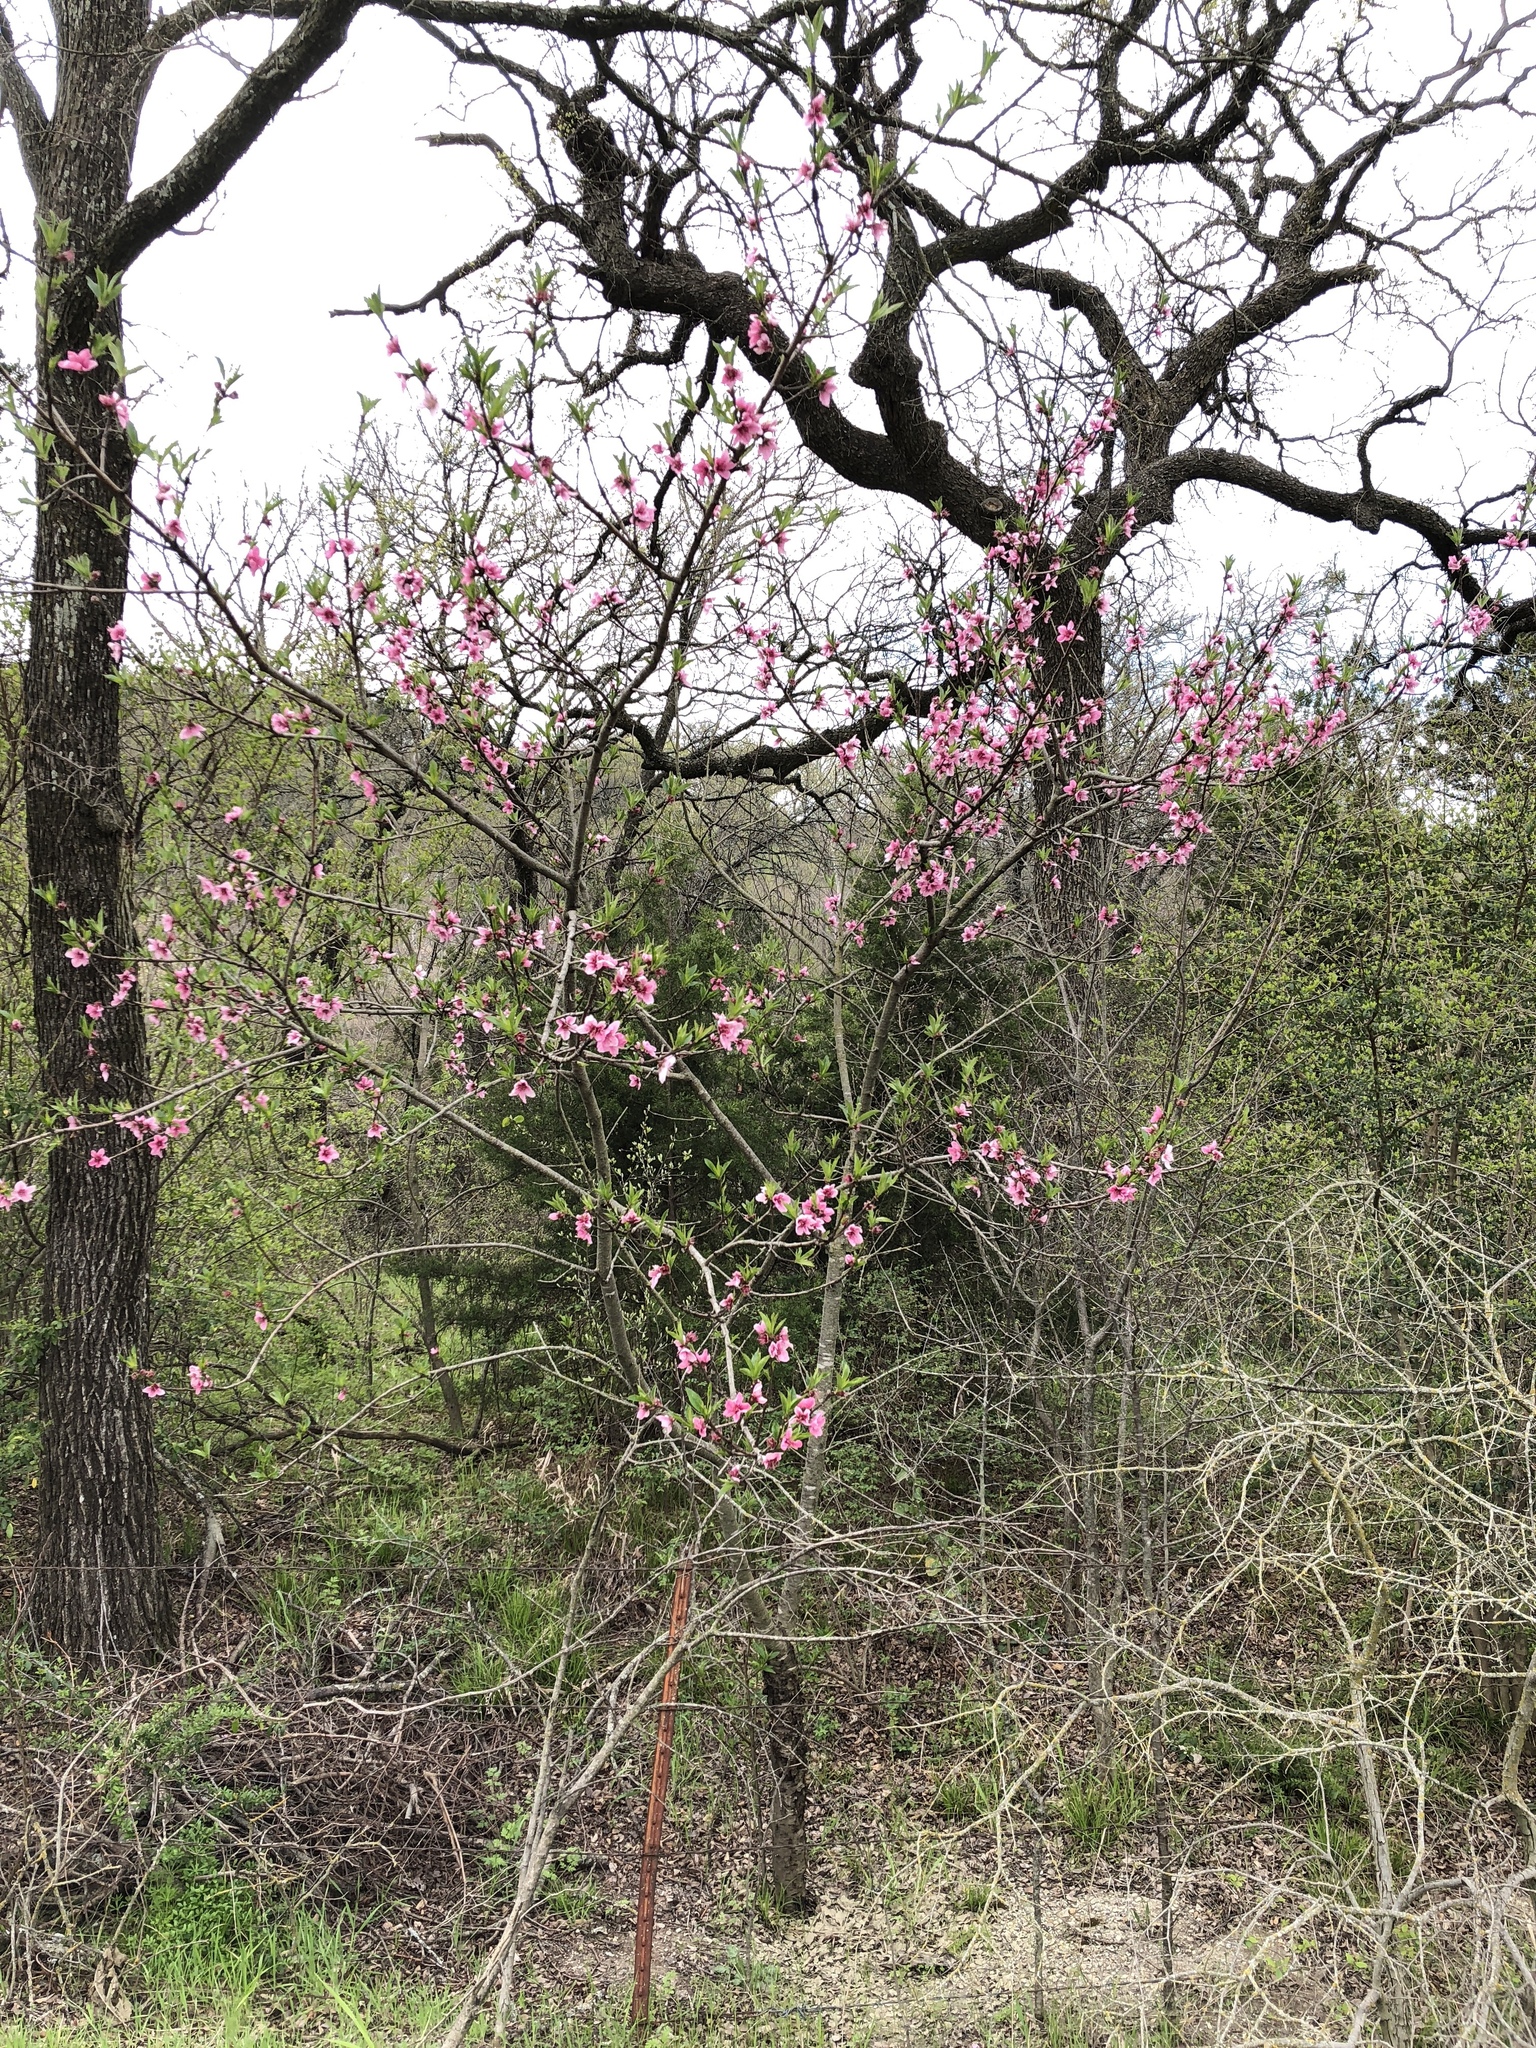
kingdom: Plantae
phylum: Tracheophyta
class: Magnoliopsida
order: Rosales
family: Rosaceae
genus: Prunus
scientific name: Prunus persica
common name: Peach
